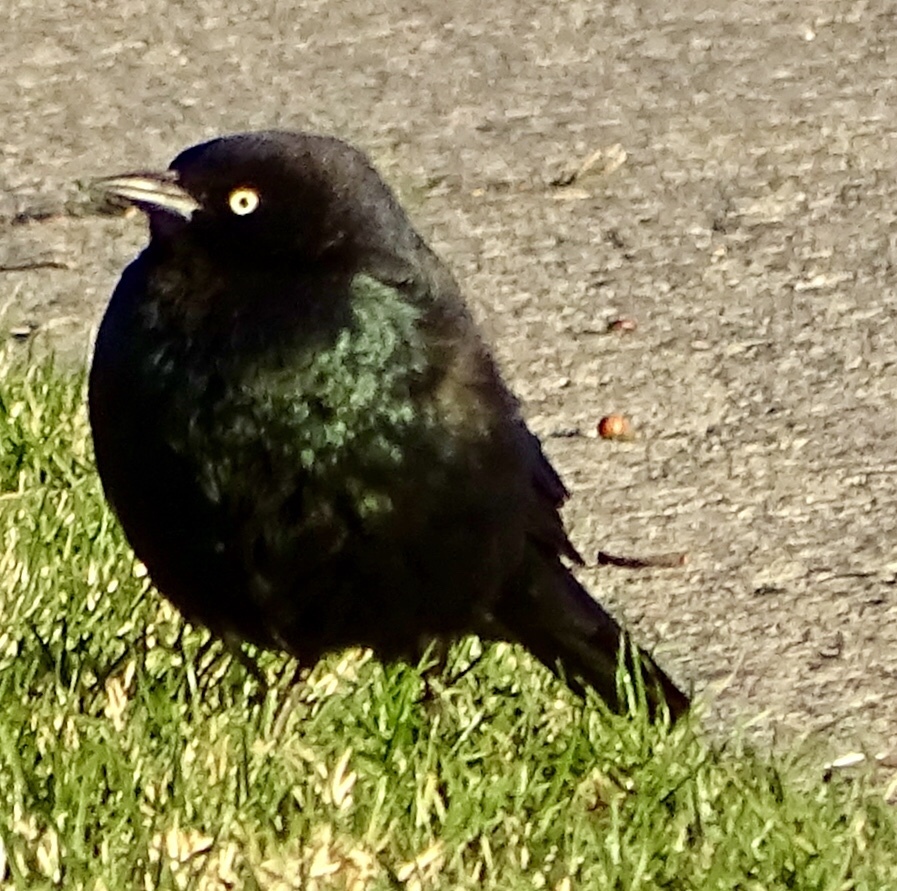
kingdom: Animalia
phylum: Chordata
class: Aves
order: Passeriformes
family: Icteridae
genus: Euphagus
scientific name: Euphagus cyanocephalus
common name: Brewer's blackbird
